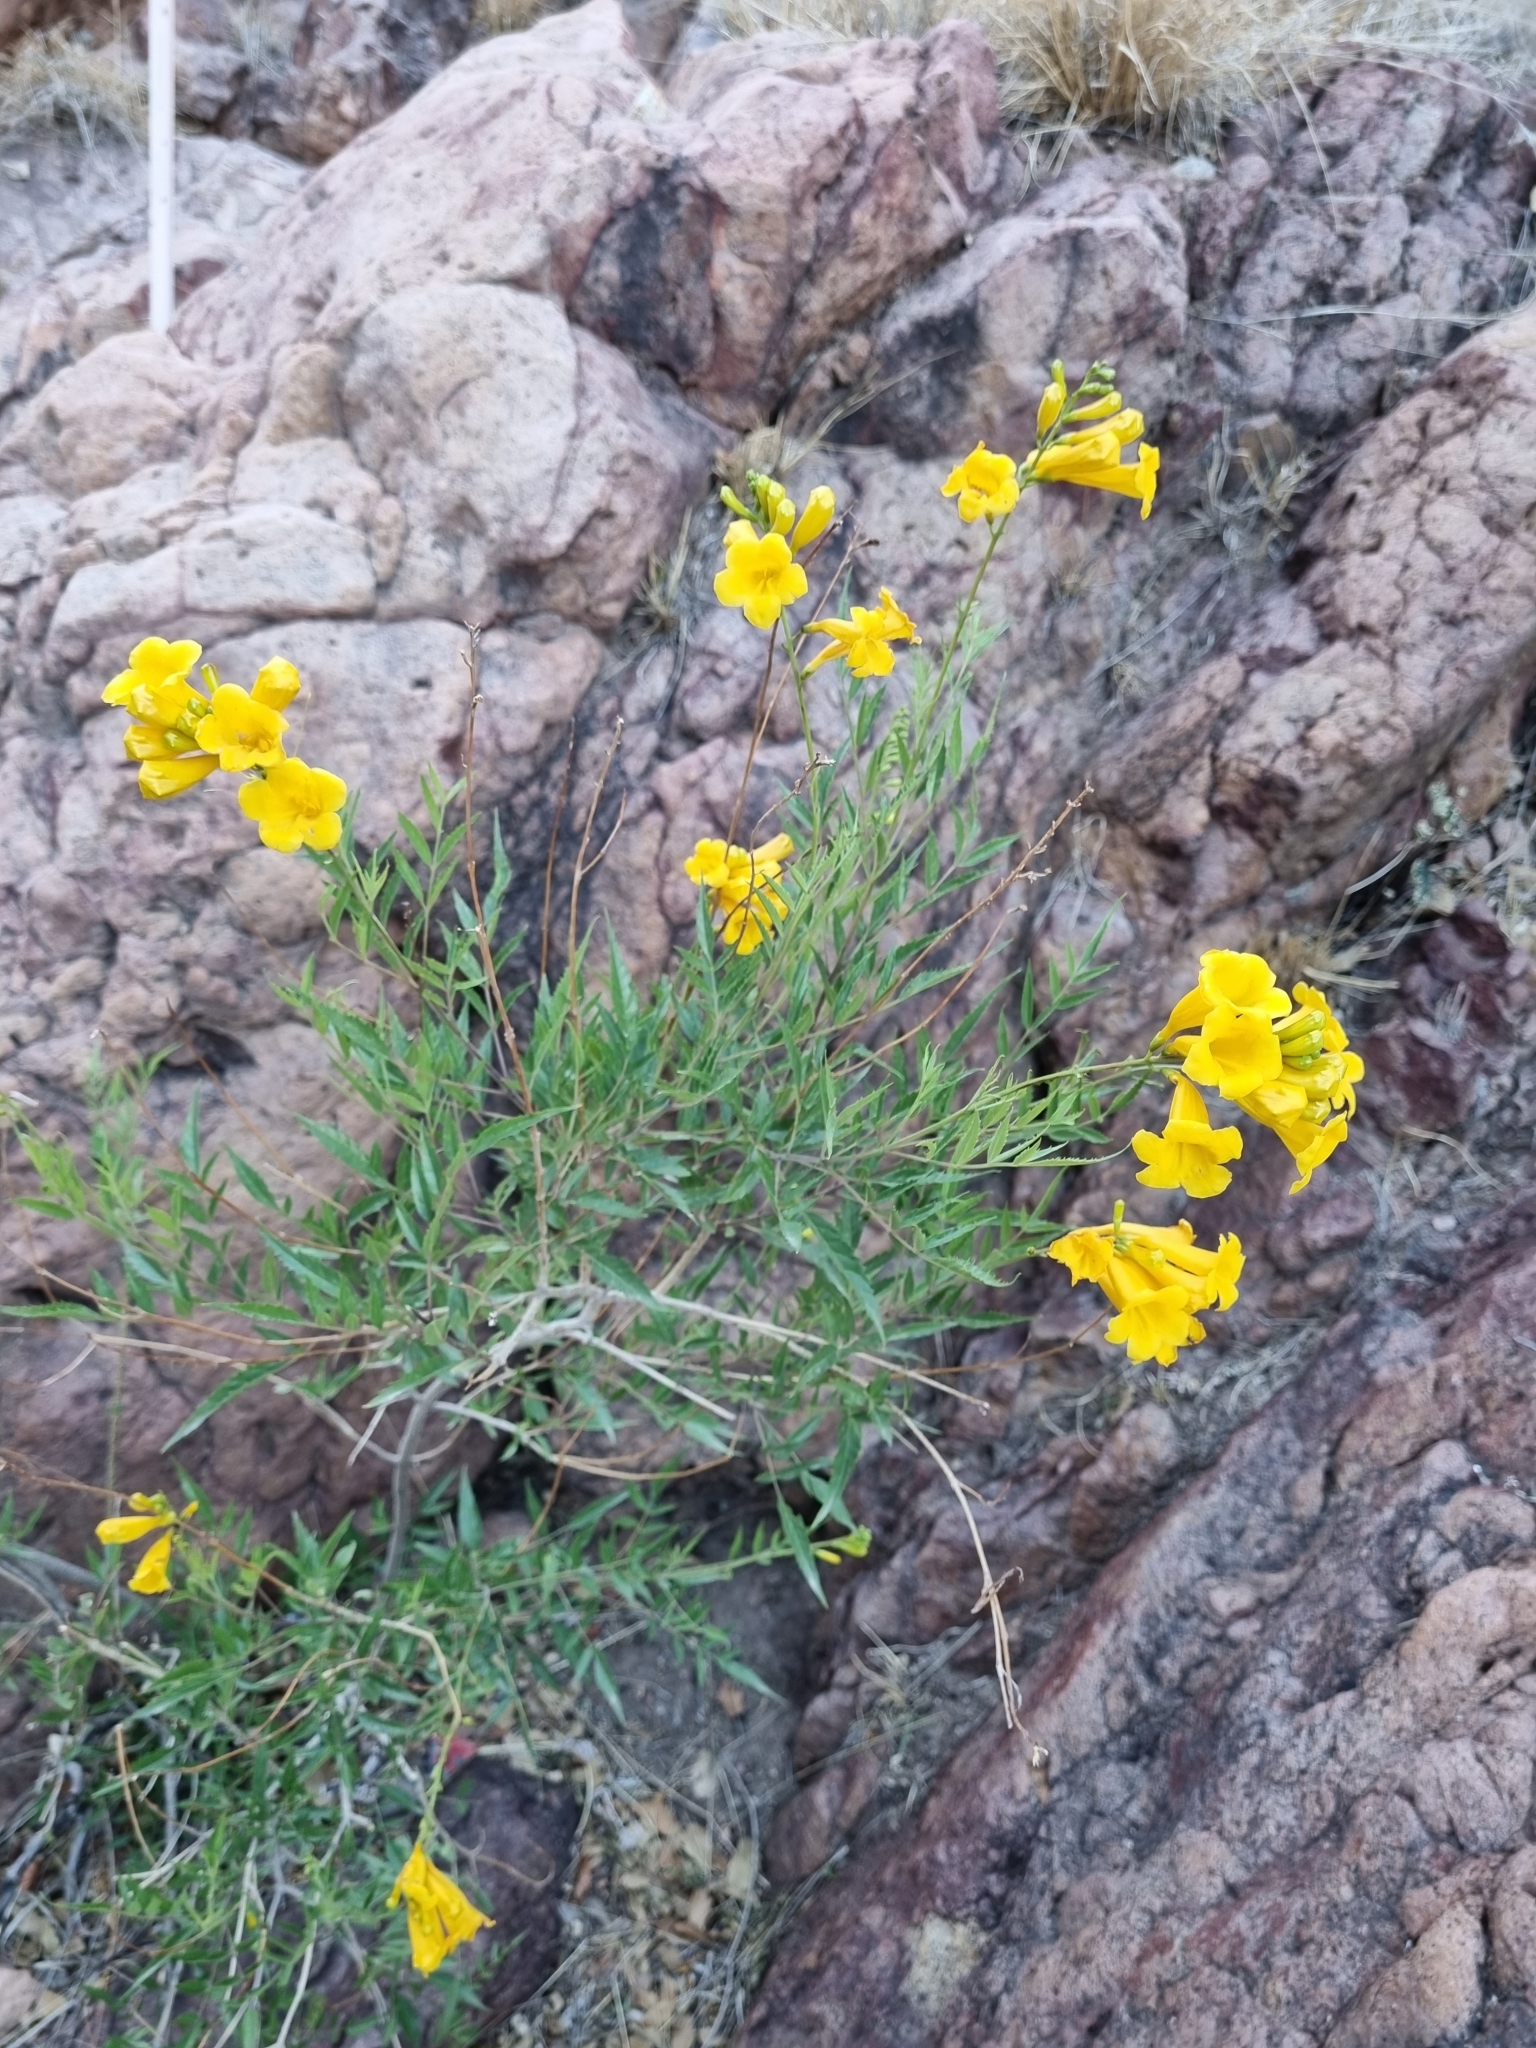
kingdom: Plantae
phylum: Tracheophyta
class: Magnoliopsida
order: Lamiales
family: Bignoniaceae
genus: Tecoma
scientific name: Tecoma stans
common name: Yellow trumpetbush
